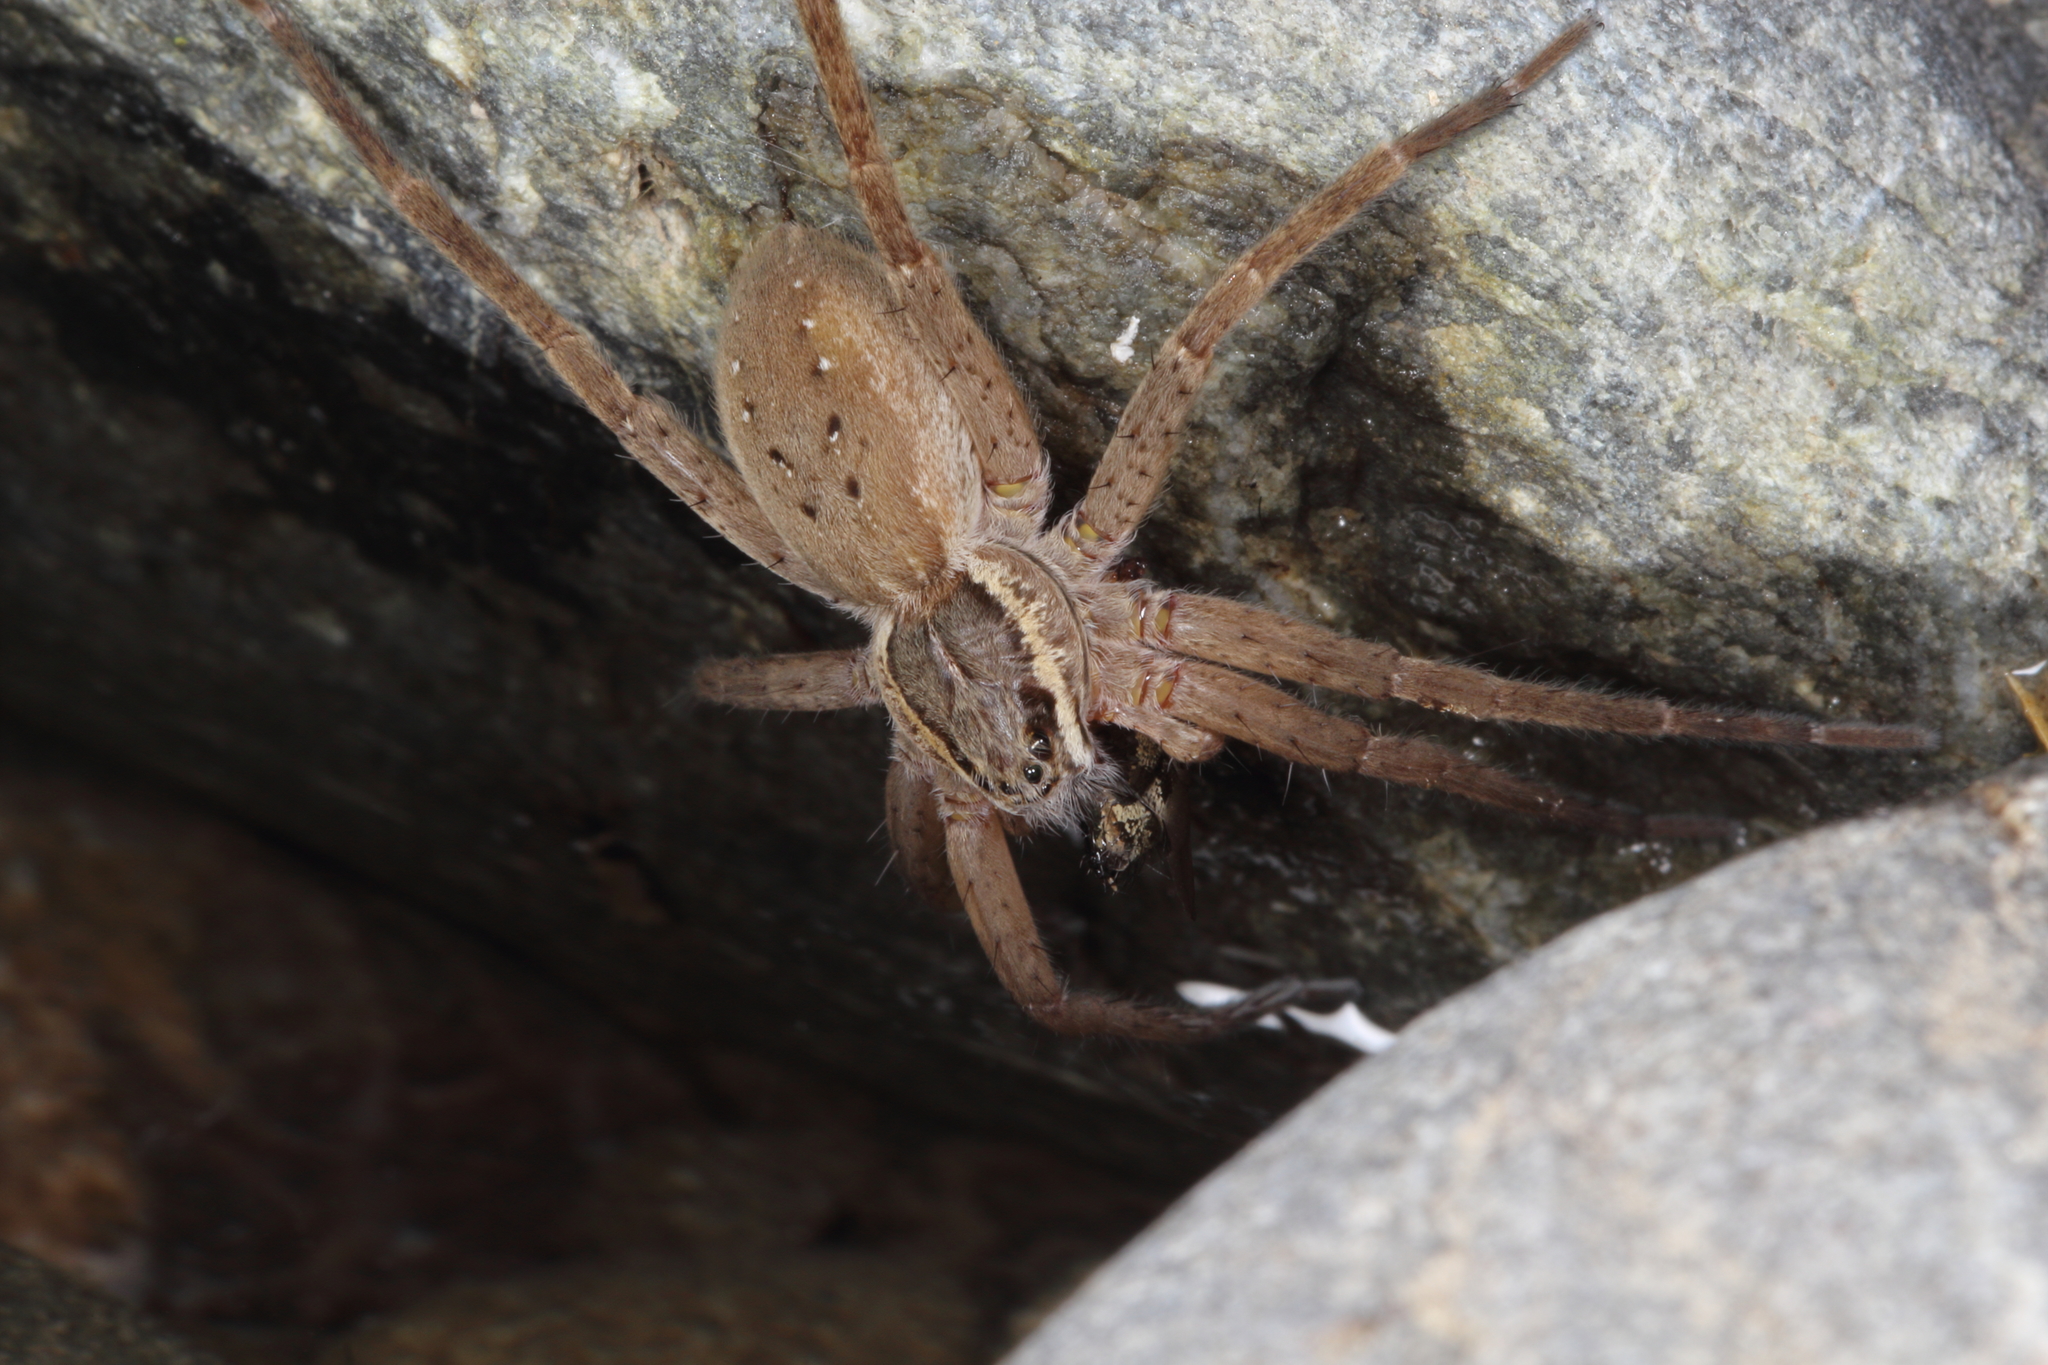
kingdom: Animalia
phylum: Arthropoda
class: Arachnida
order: Araneae
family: Pisauridae
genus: Dolomedes
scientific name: Dolomedes aquaticus
